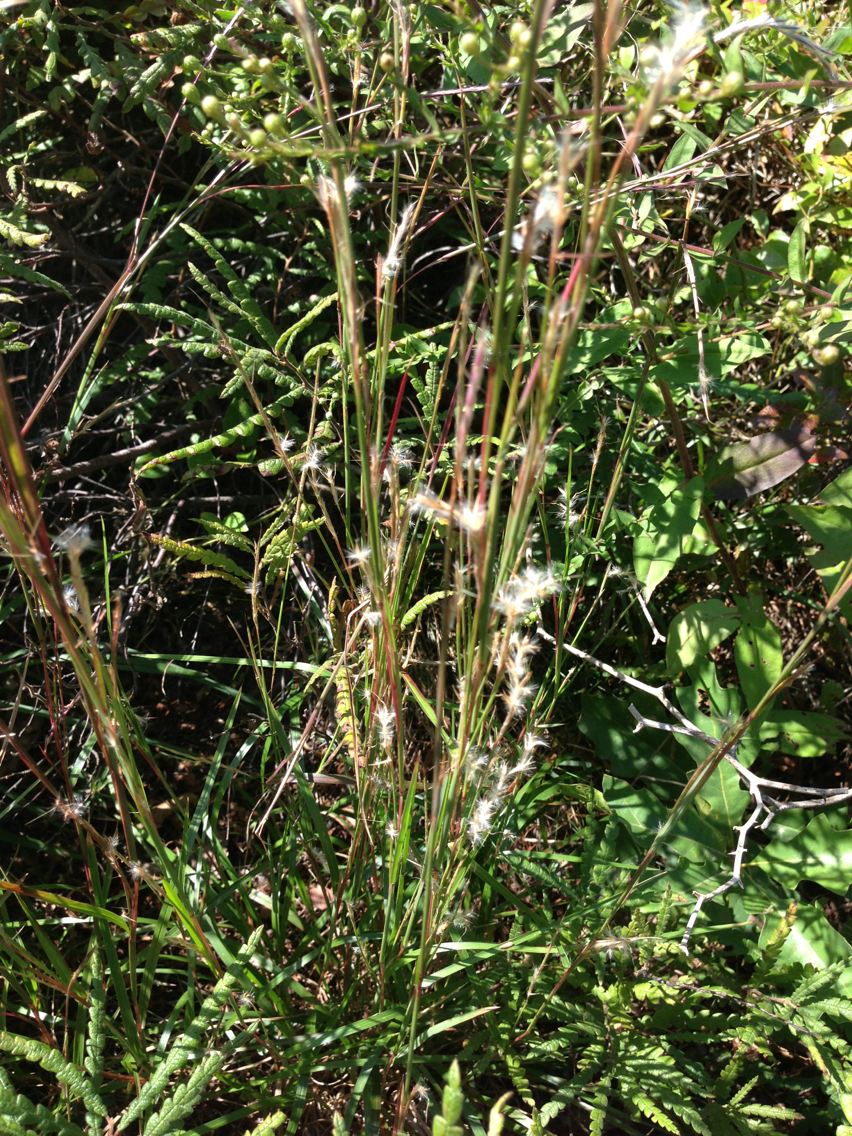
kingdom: Plantae
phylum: Tracheophyta
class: Liliopsida
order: Poales
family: Poaceae
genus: Schizachyrium
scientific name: Schizachyrium scoparium
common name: Little bluestem
